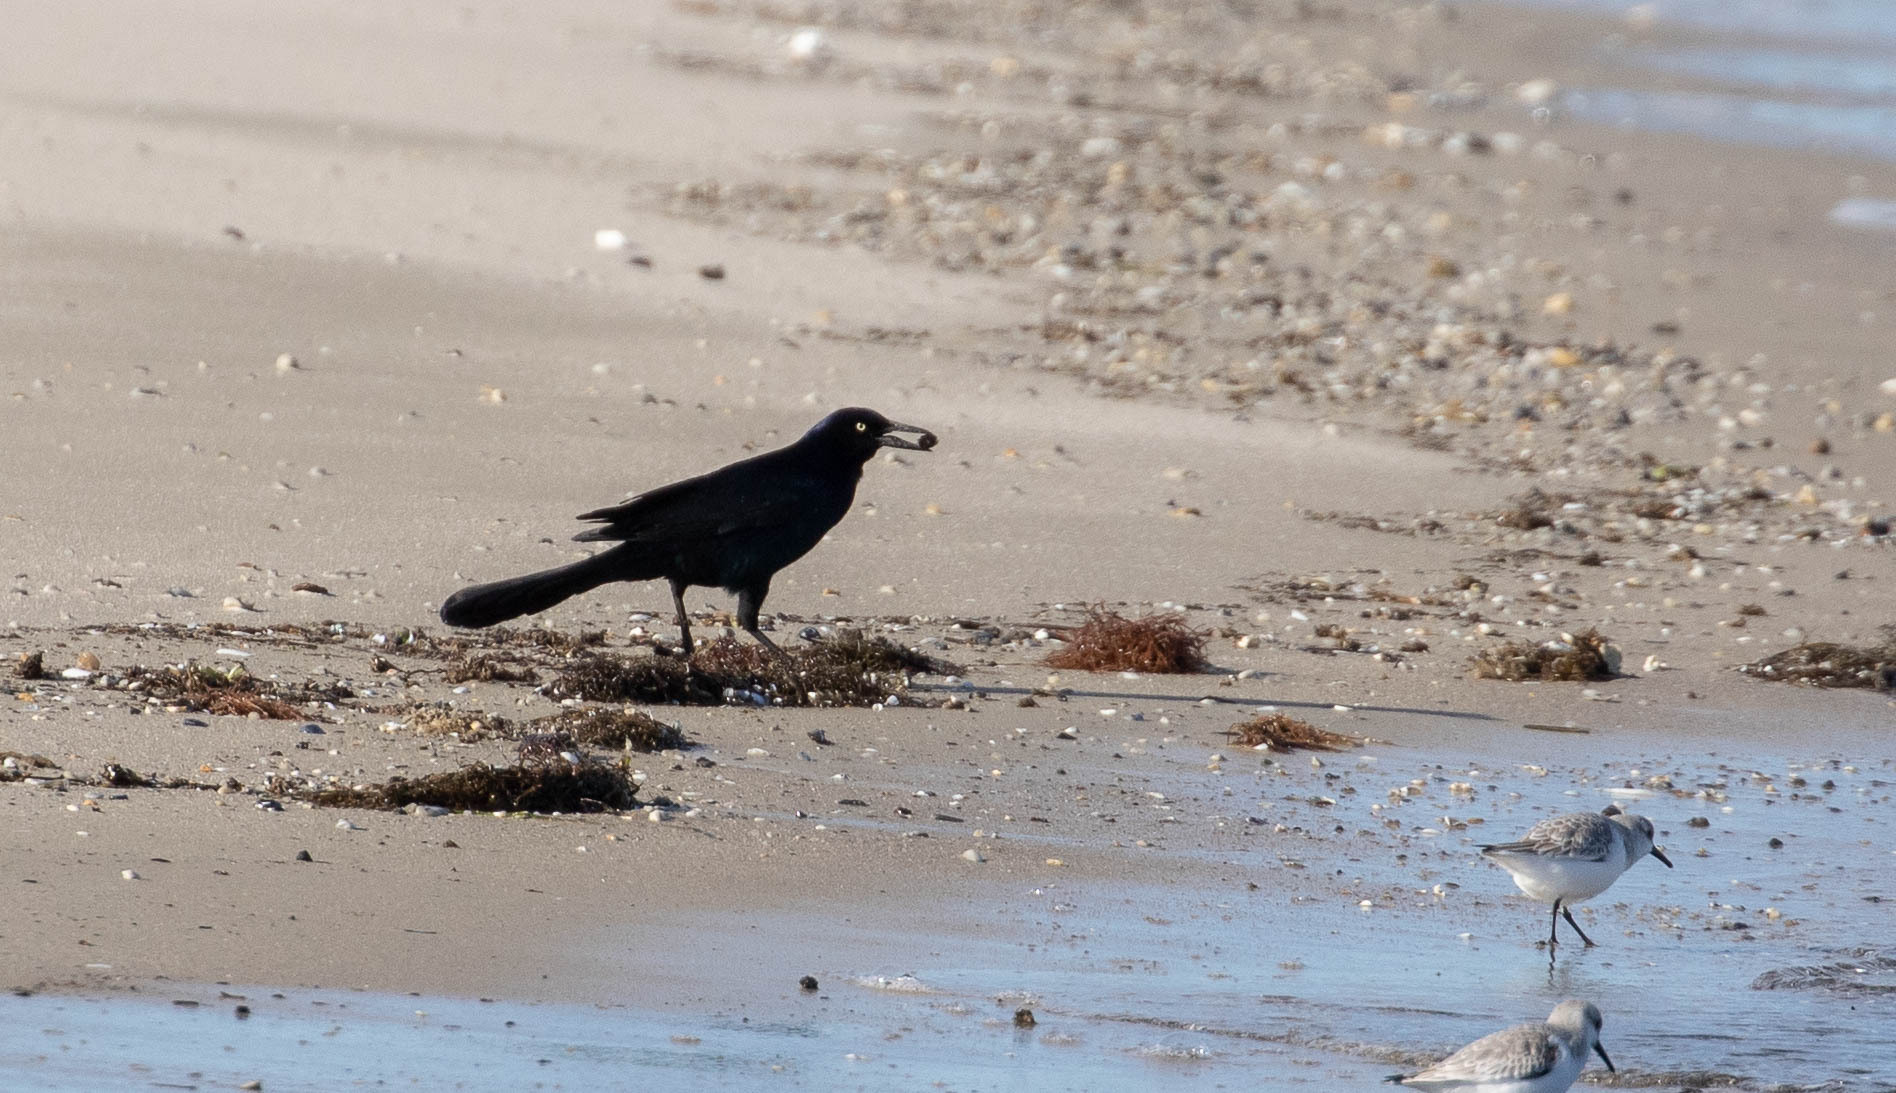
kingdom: Animalia
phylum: Chordata
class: Aves
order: Passeriformes
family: Icteridae
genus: Quiscalus
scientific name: Quiscalus major
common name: Boat-tailed grackle
